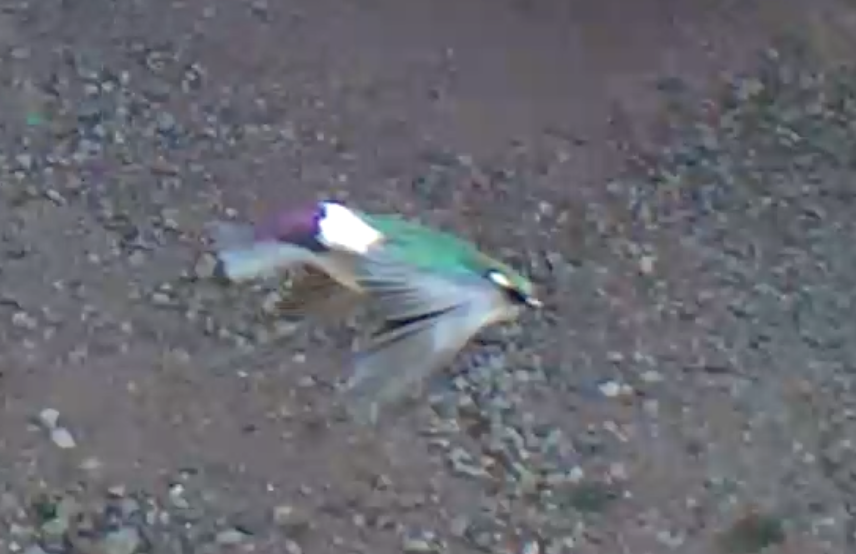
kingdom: Animalia
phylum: Chordata
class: Aves
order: Passeriformes
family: Hirundinidae
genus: Tachycineta
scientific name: Tachycineta thalassina
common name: Violet-green swallow
